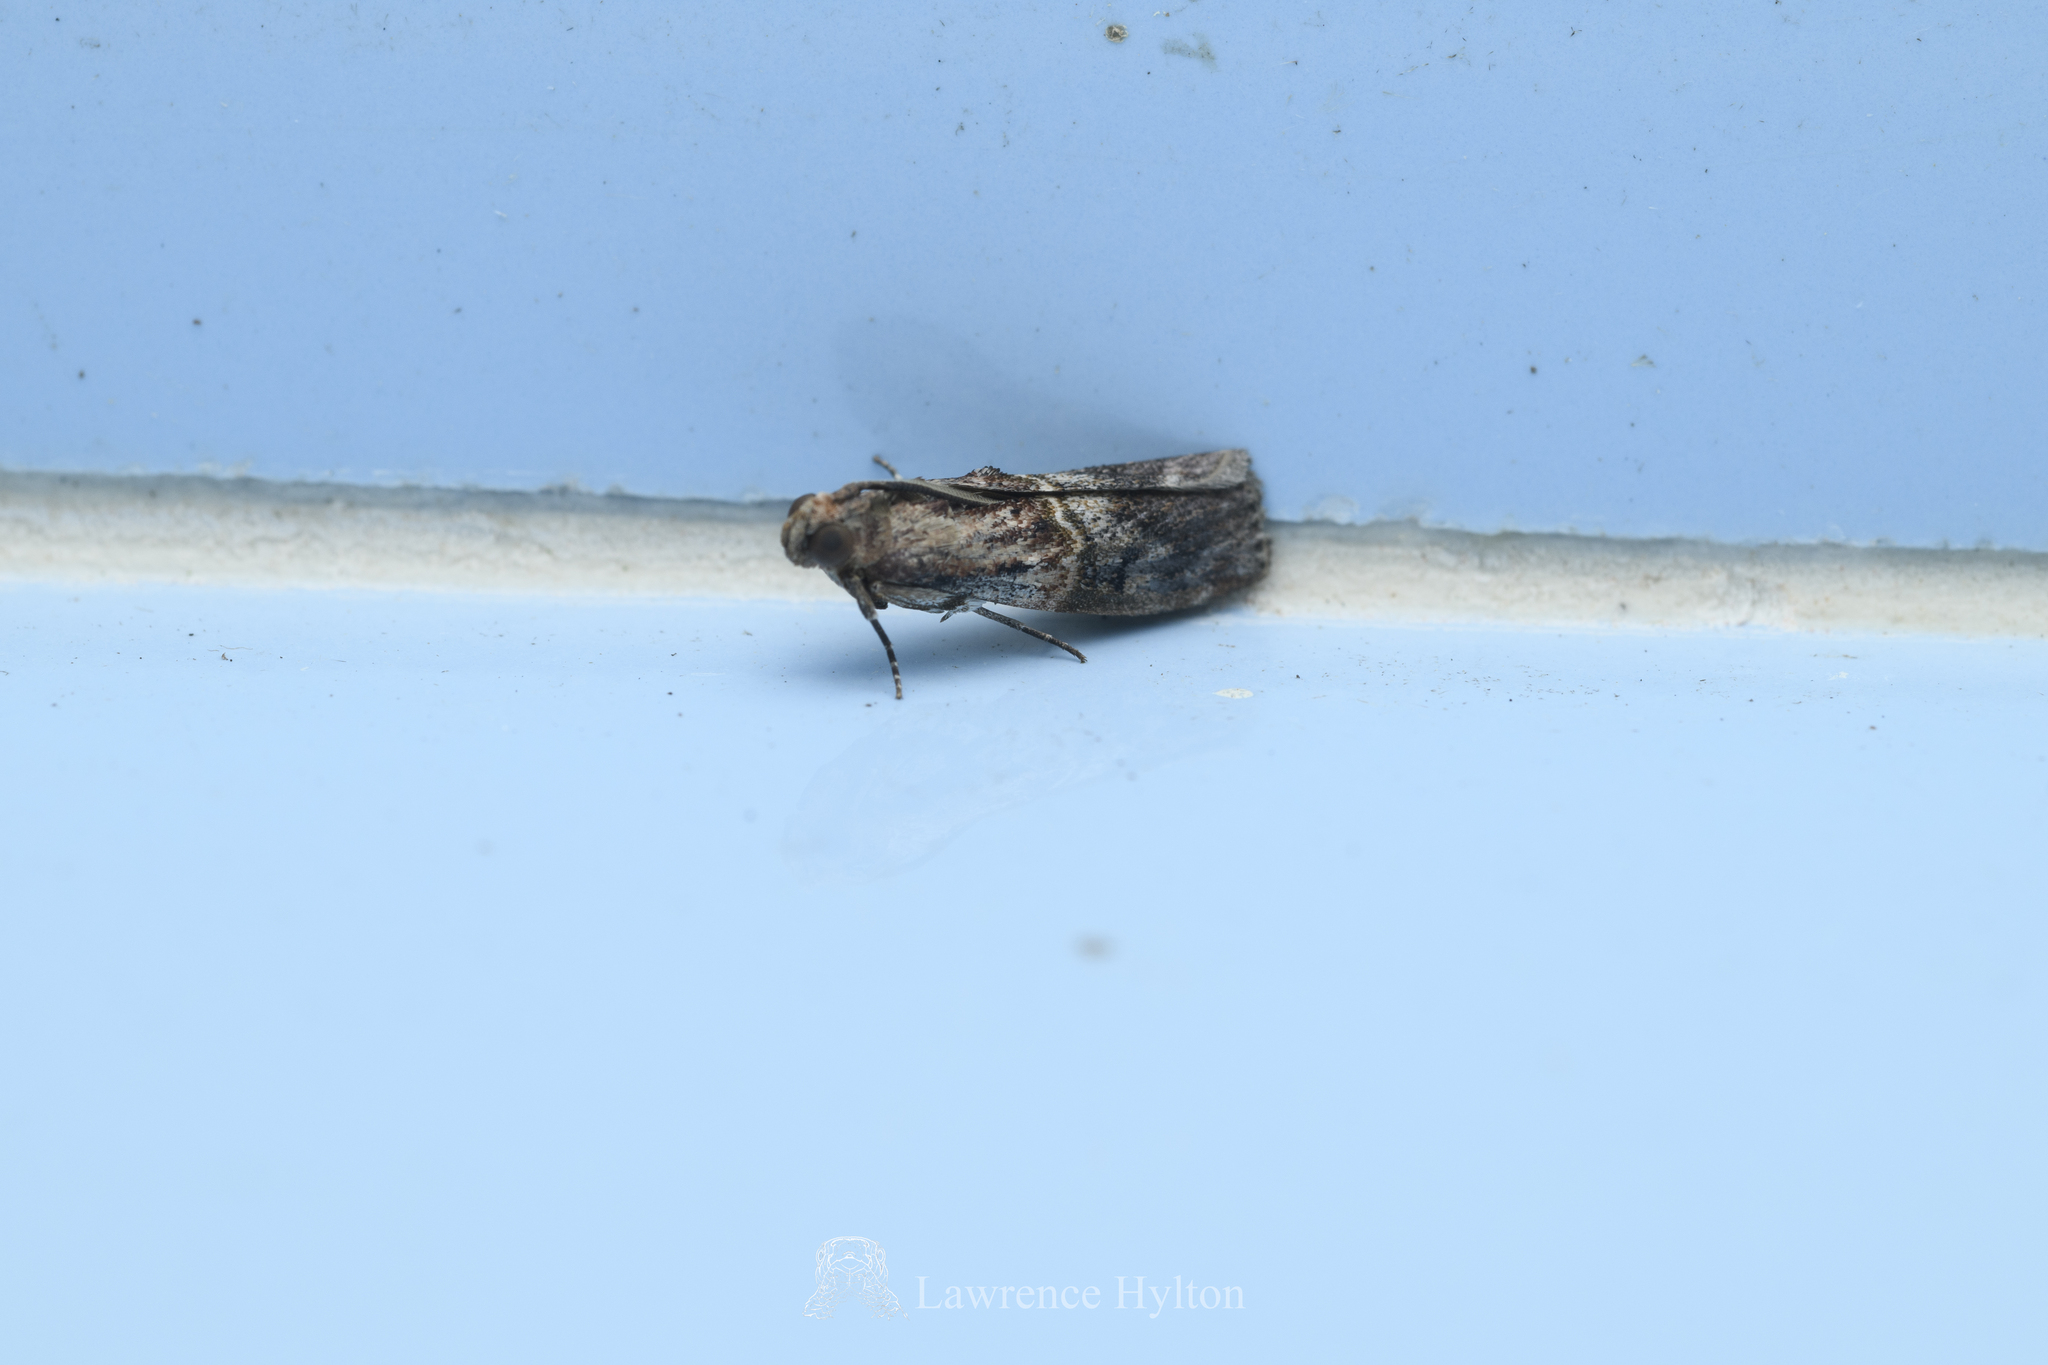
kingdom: Animalia
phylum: Arthropoda
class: Insecta
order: Lepidoptera
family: Pyralidae
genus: Ceroprepes
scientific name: Ceroprepes pulvillella
